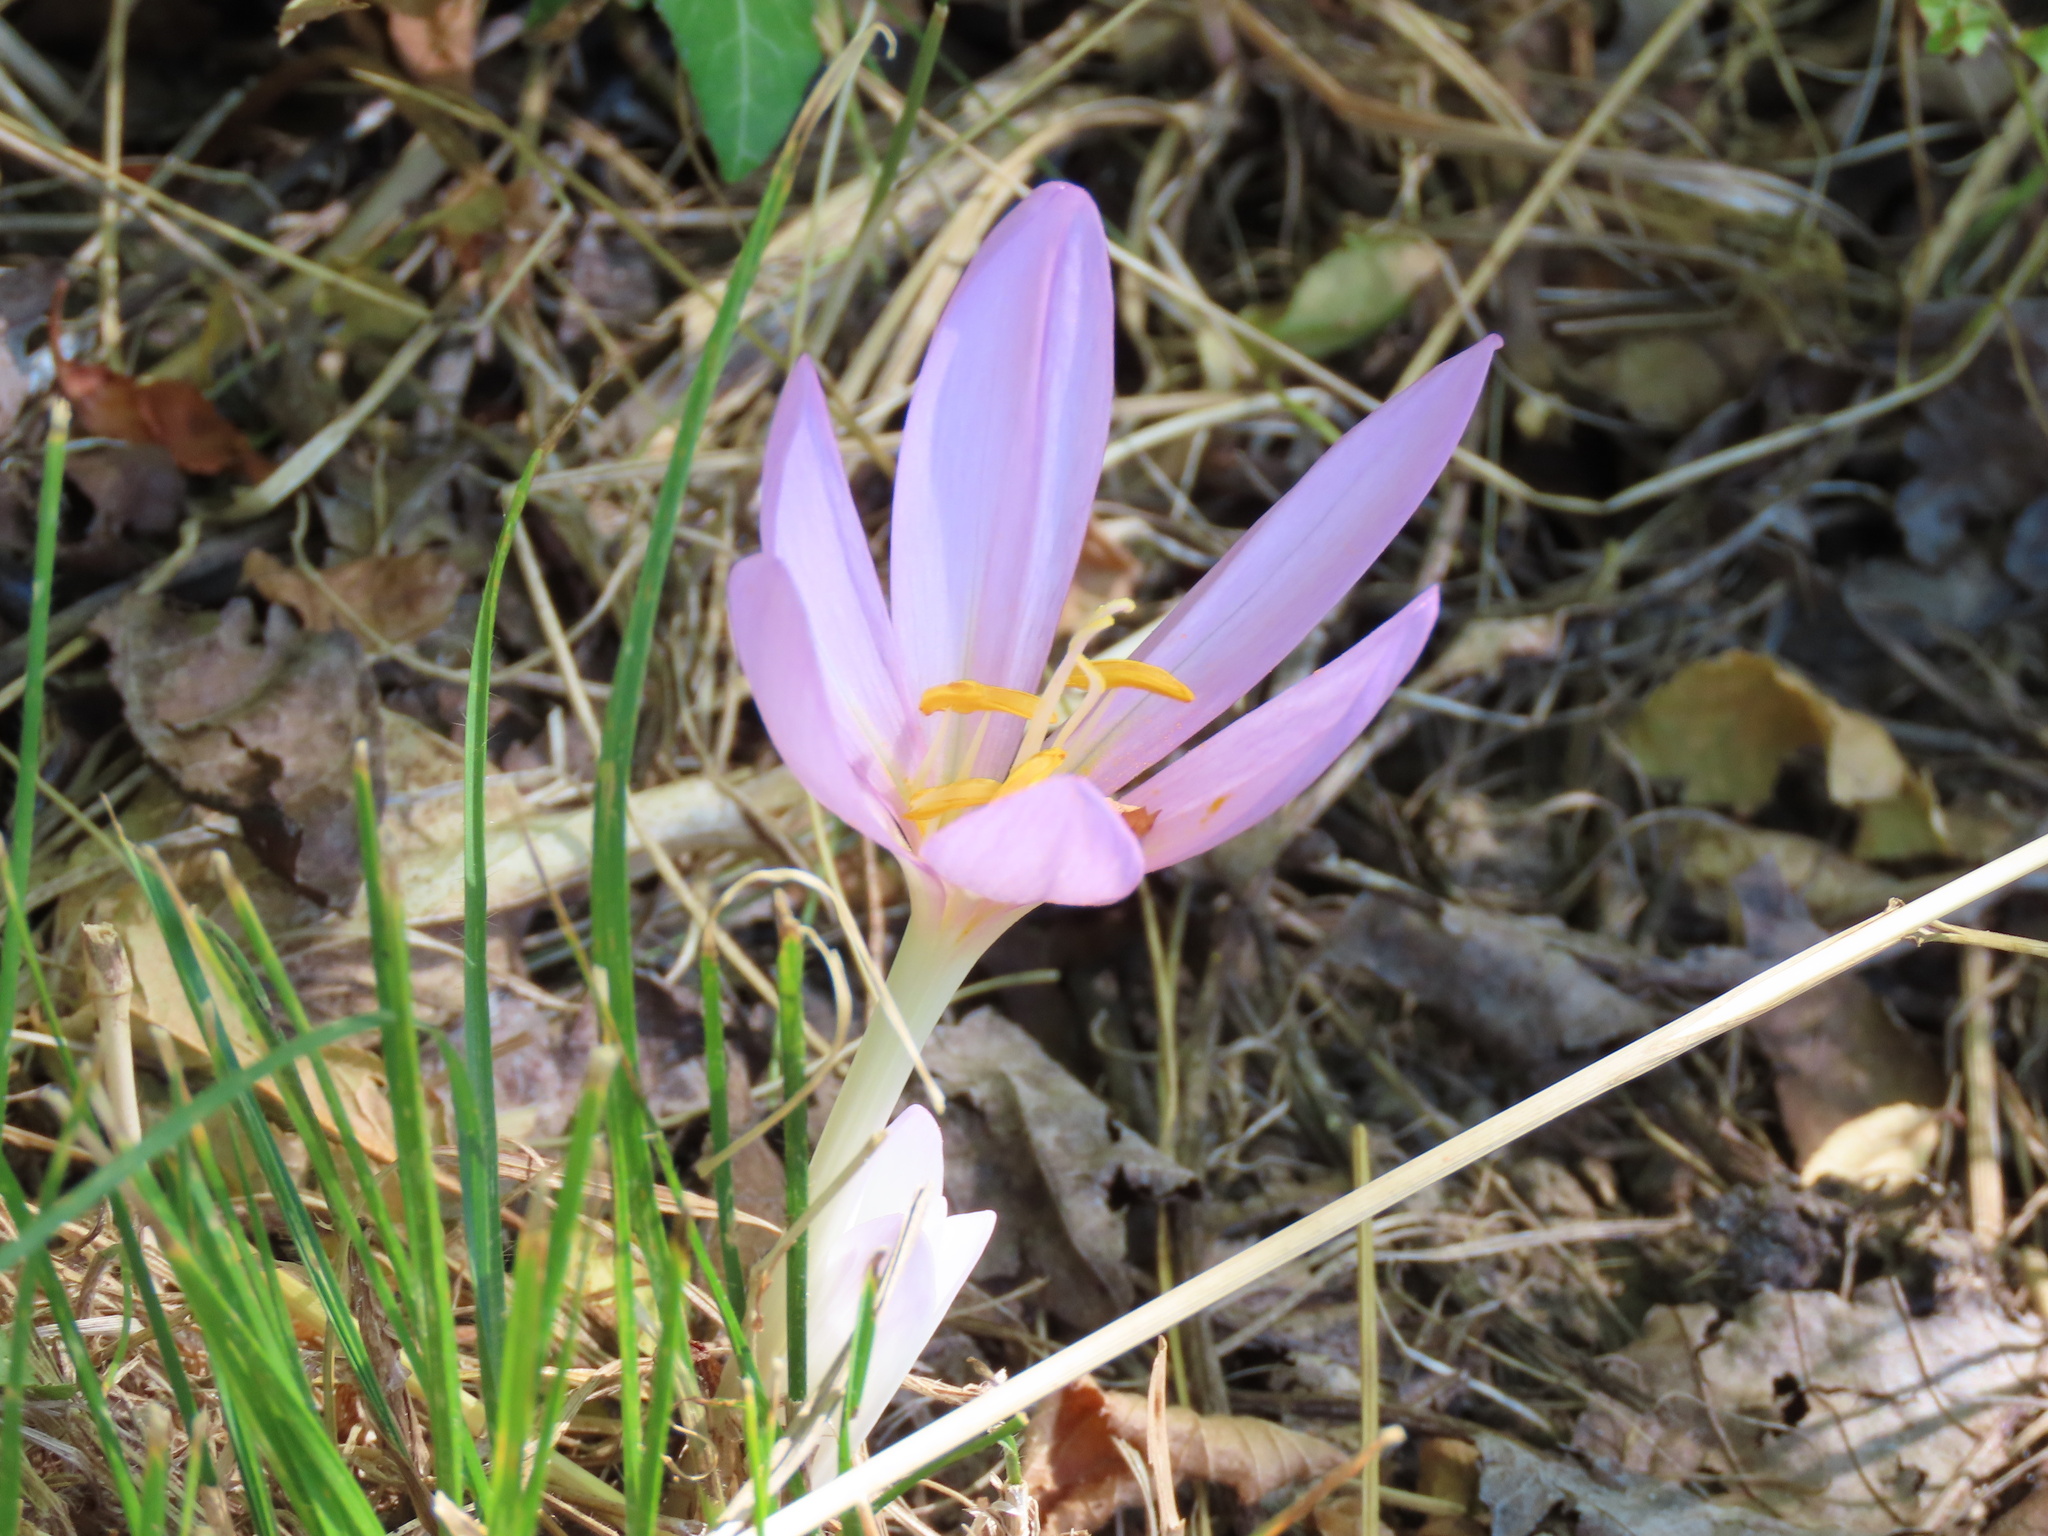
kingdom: Plantae
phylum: Tracheophyta
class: Liliopsida
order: Liliales
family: Colchicaceae
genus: Colchicum
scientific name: Colchicum autumnale
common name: Autumn crocus
